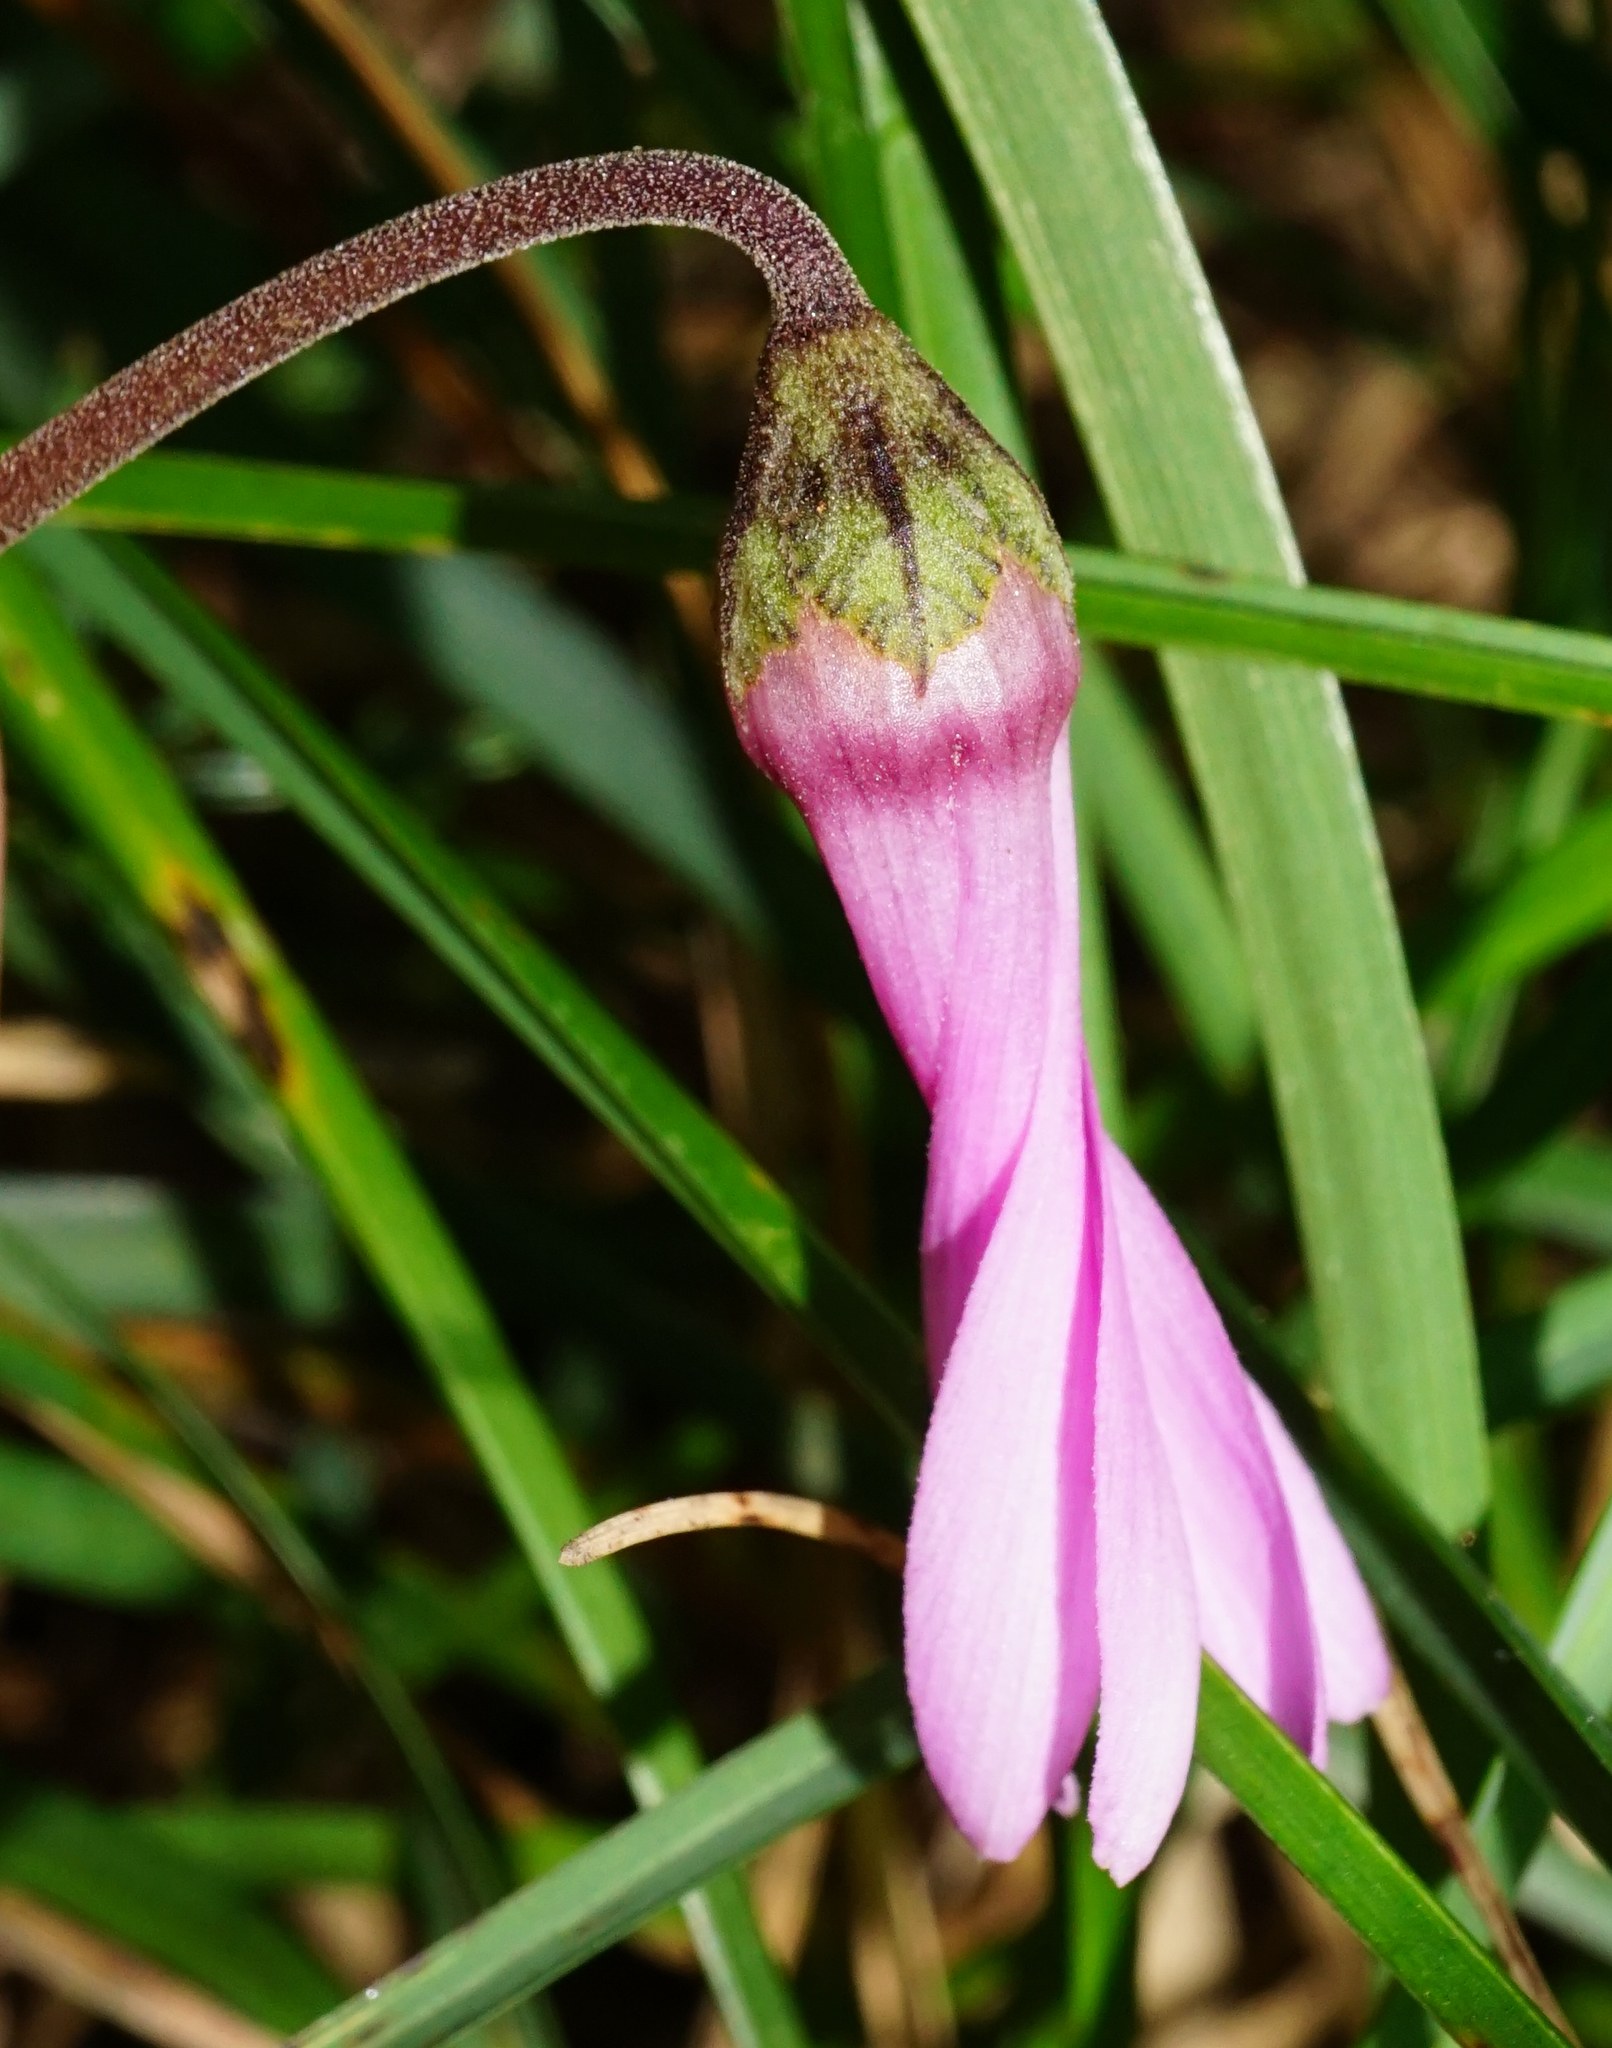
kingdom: Plantae
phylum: Tracheophyta
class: Magnoliopsida
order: Ericales
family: Primulaceae
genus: Cyclamen
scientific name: Cyclamen purpurascens
